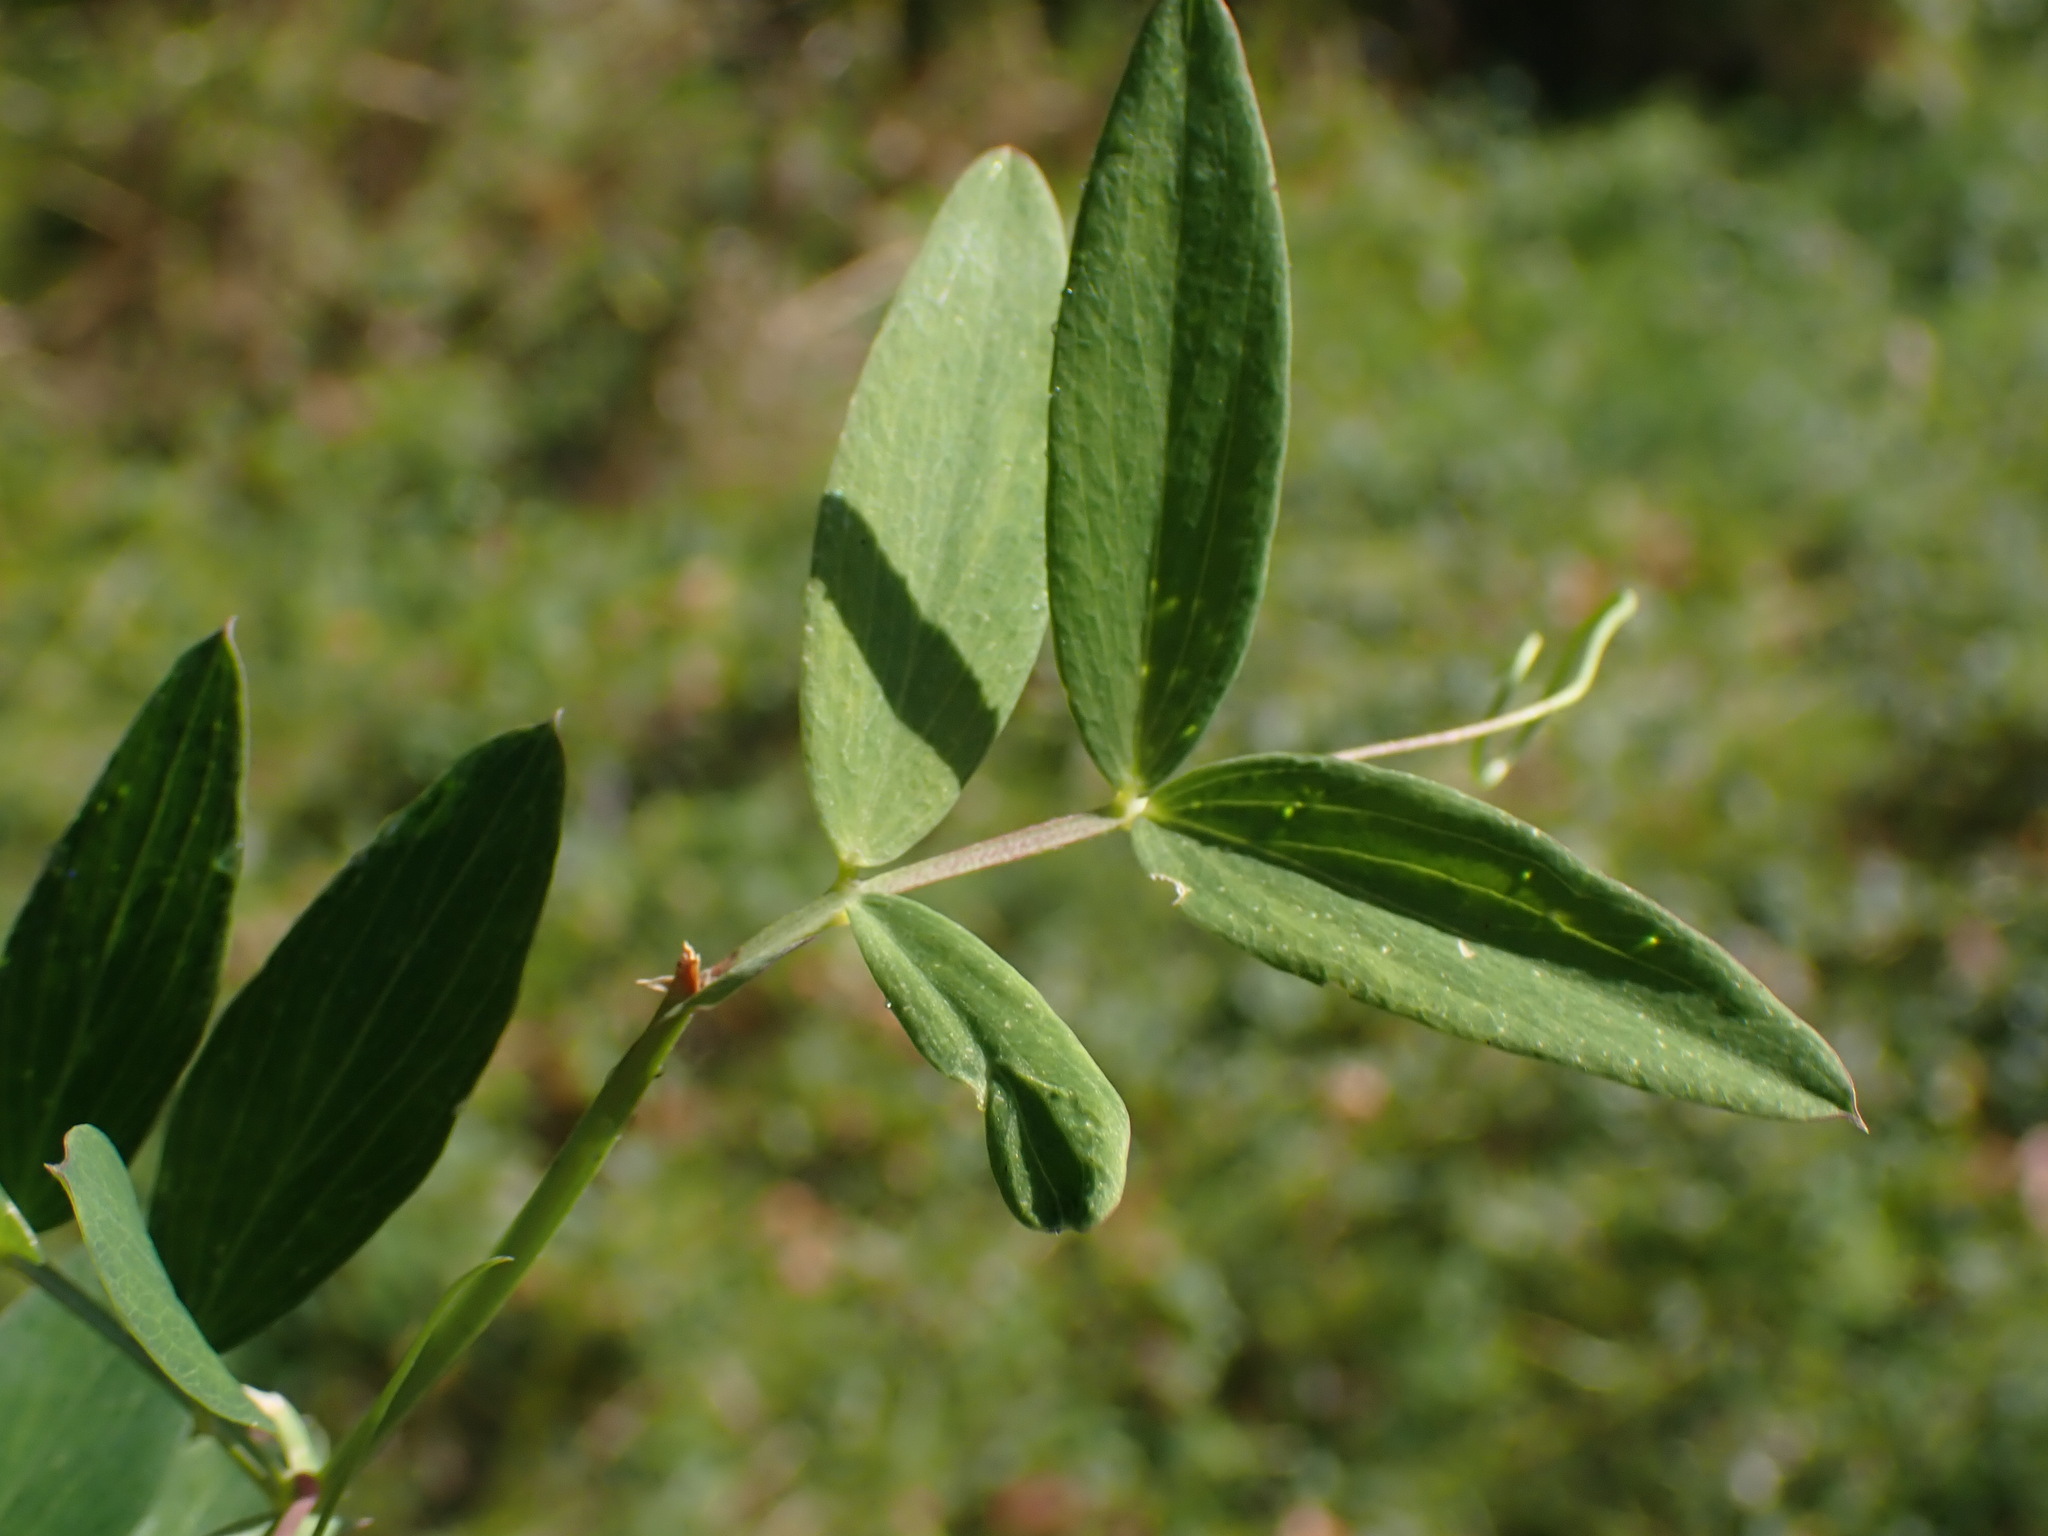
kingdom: Plantae
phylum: Tracheophyta
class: Magnoliopsida
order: Fabales
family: Fabaceae
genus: Lathyrus
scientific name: Lathyrus palustris
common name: Marsh pea
